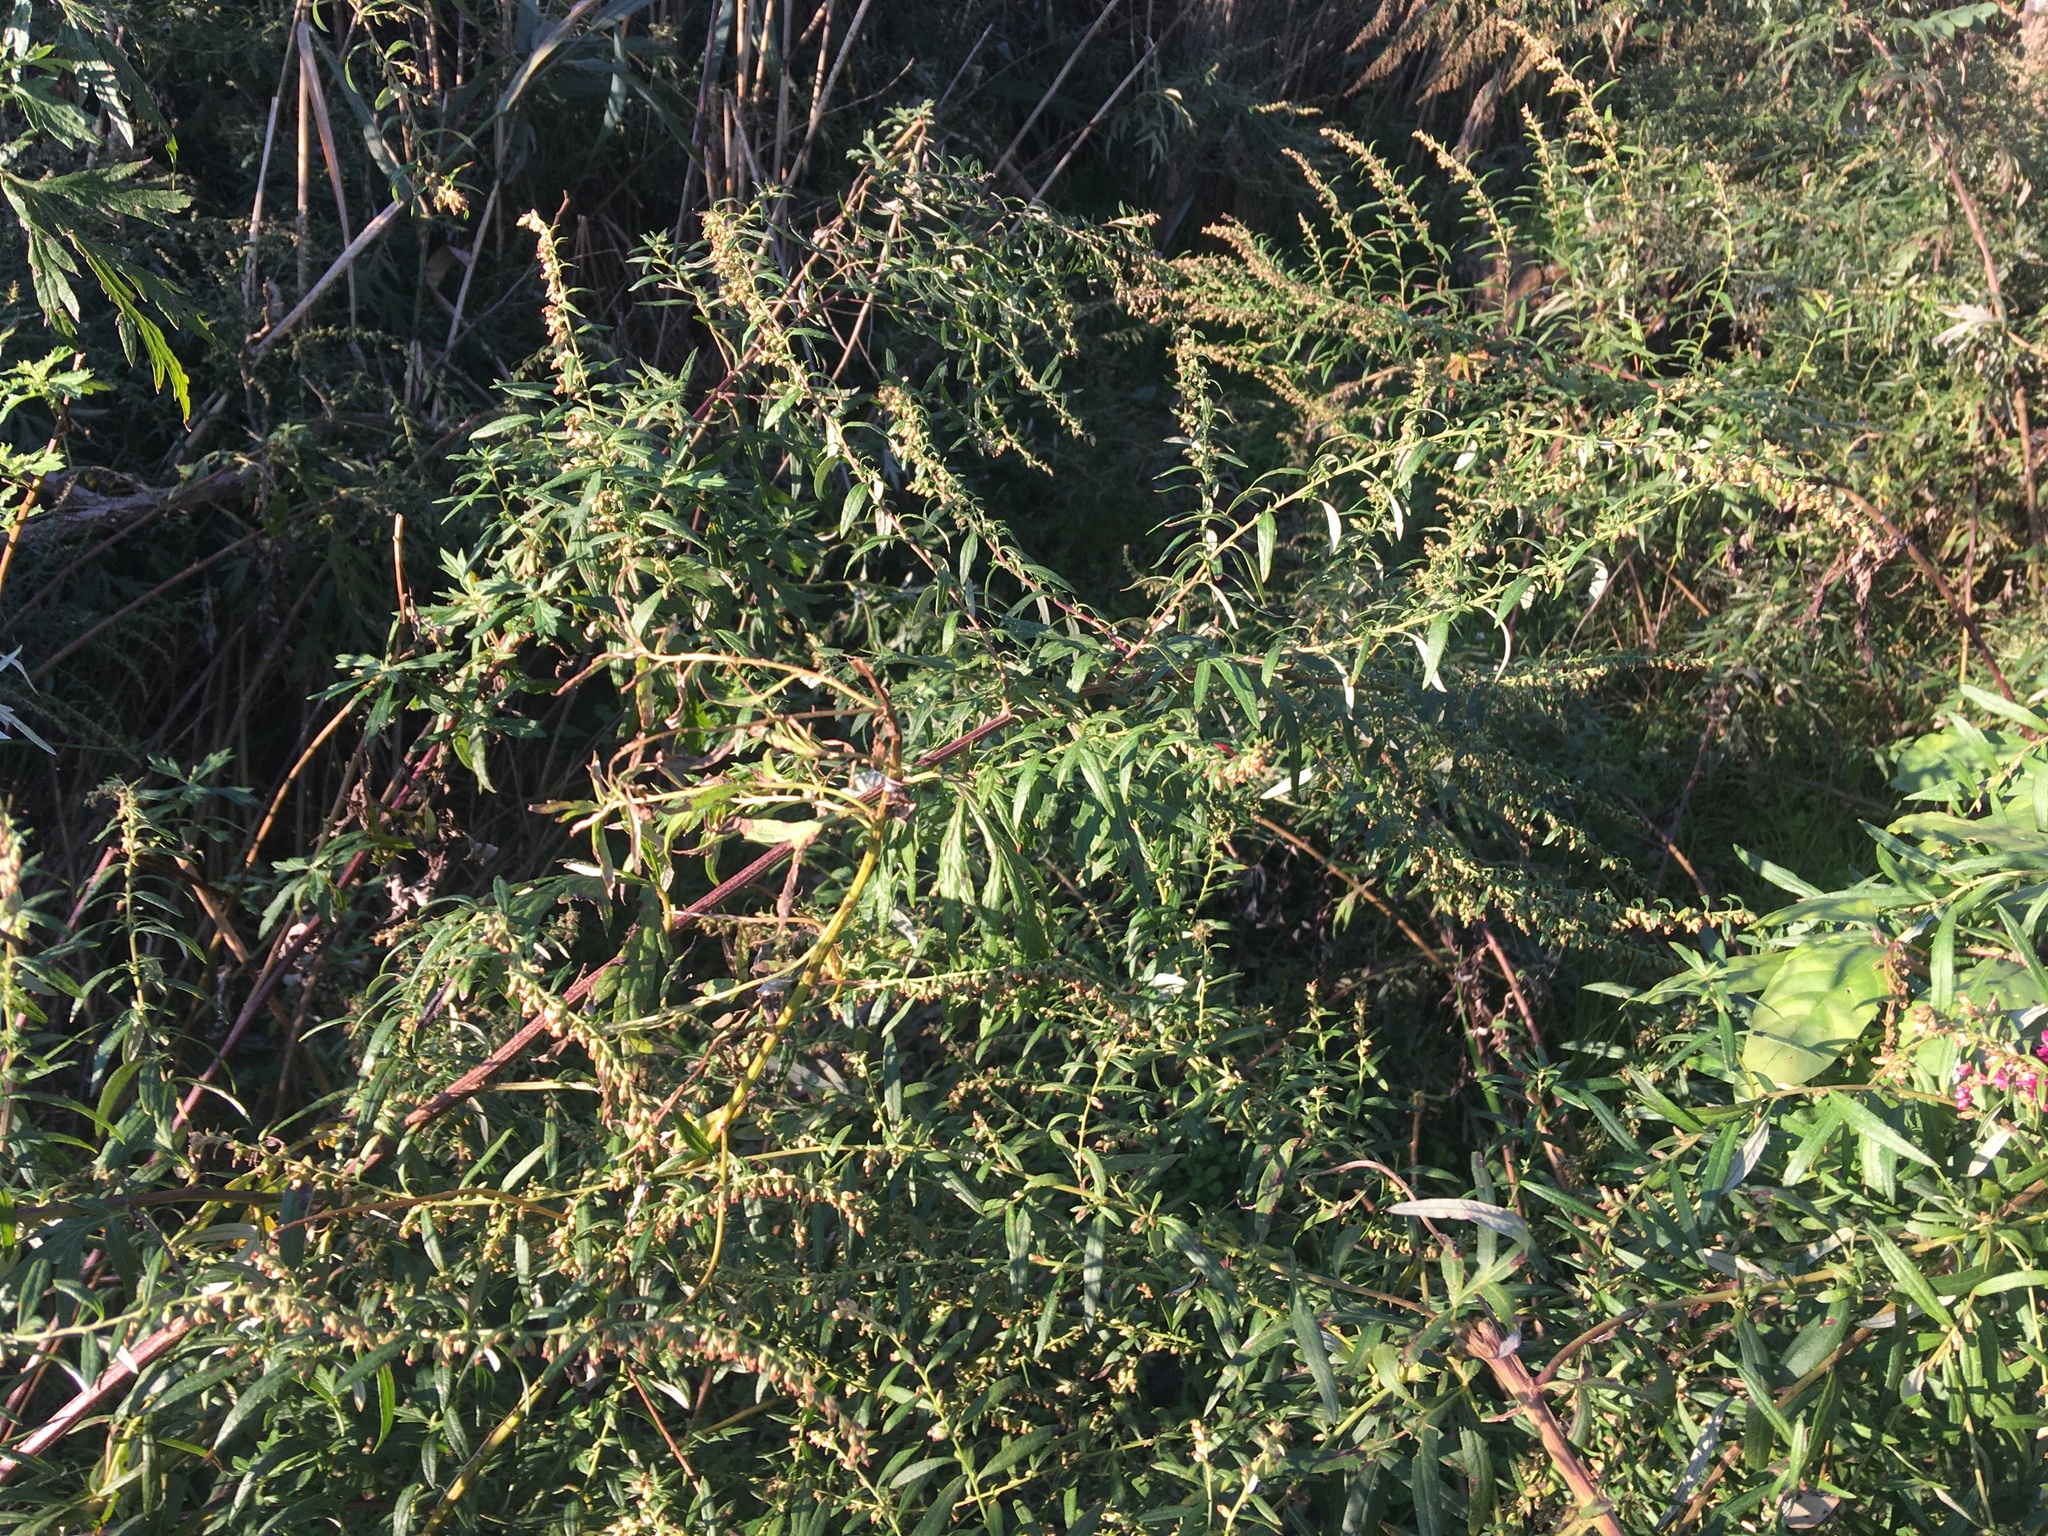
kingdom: Plantae
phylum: Tracheophyta
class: Magnoliopsida
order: Asterales
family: Asteraceae
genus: Artemisia
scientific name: Artemisia vulgaris
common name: Mugwort
